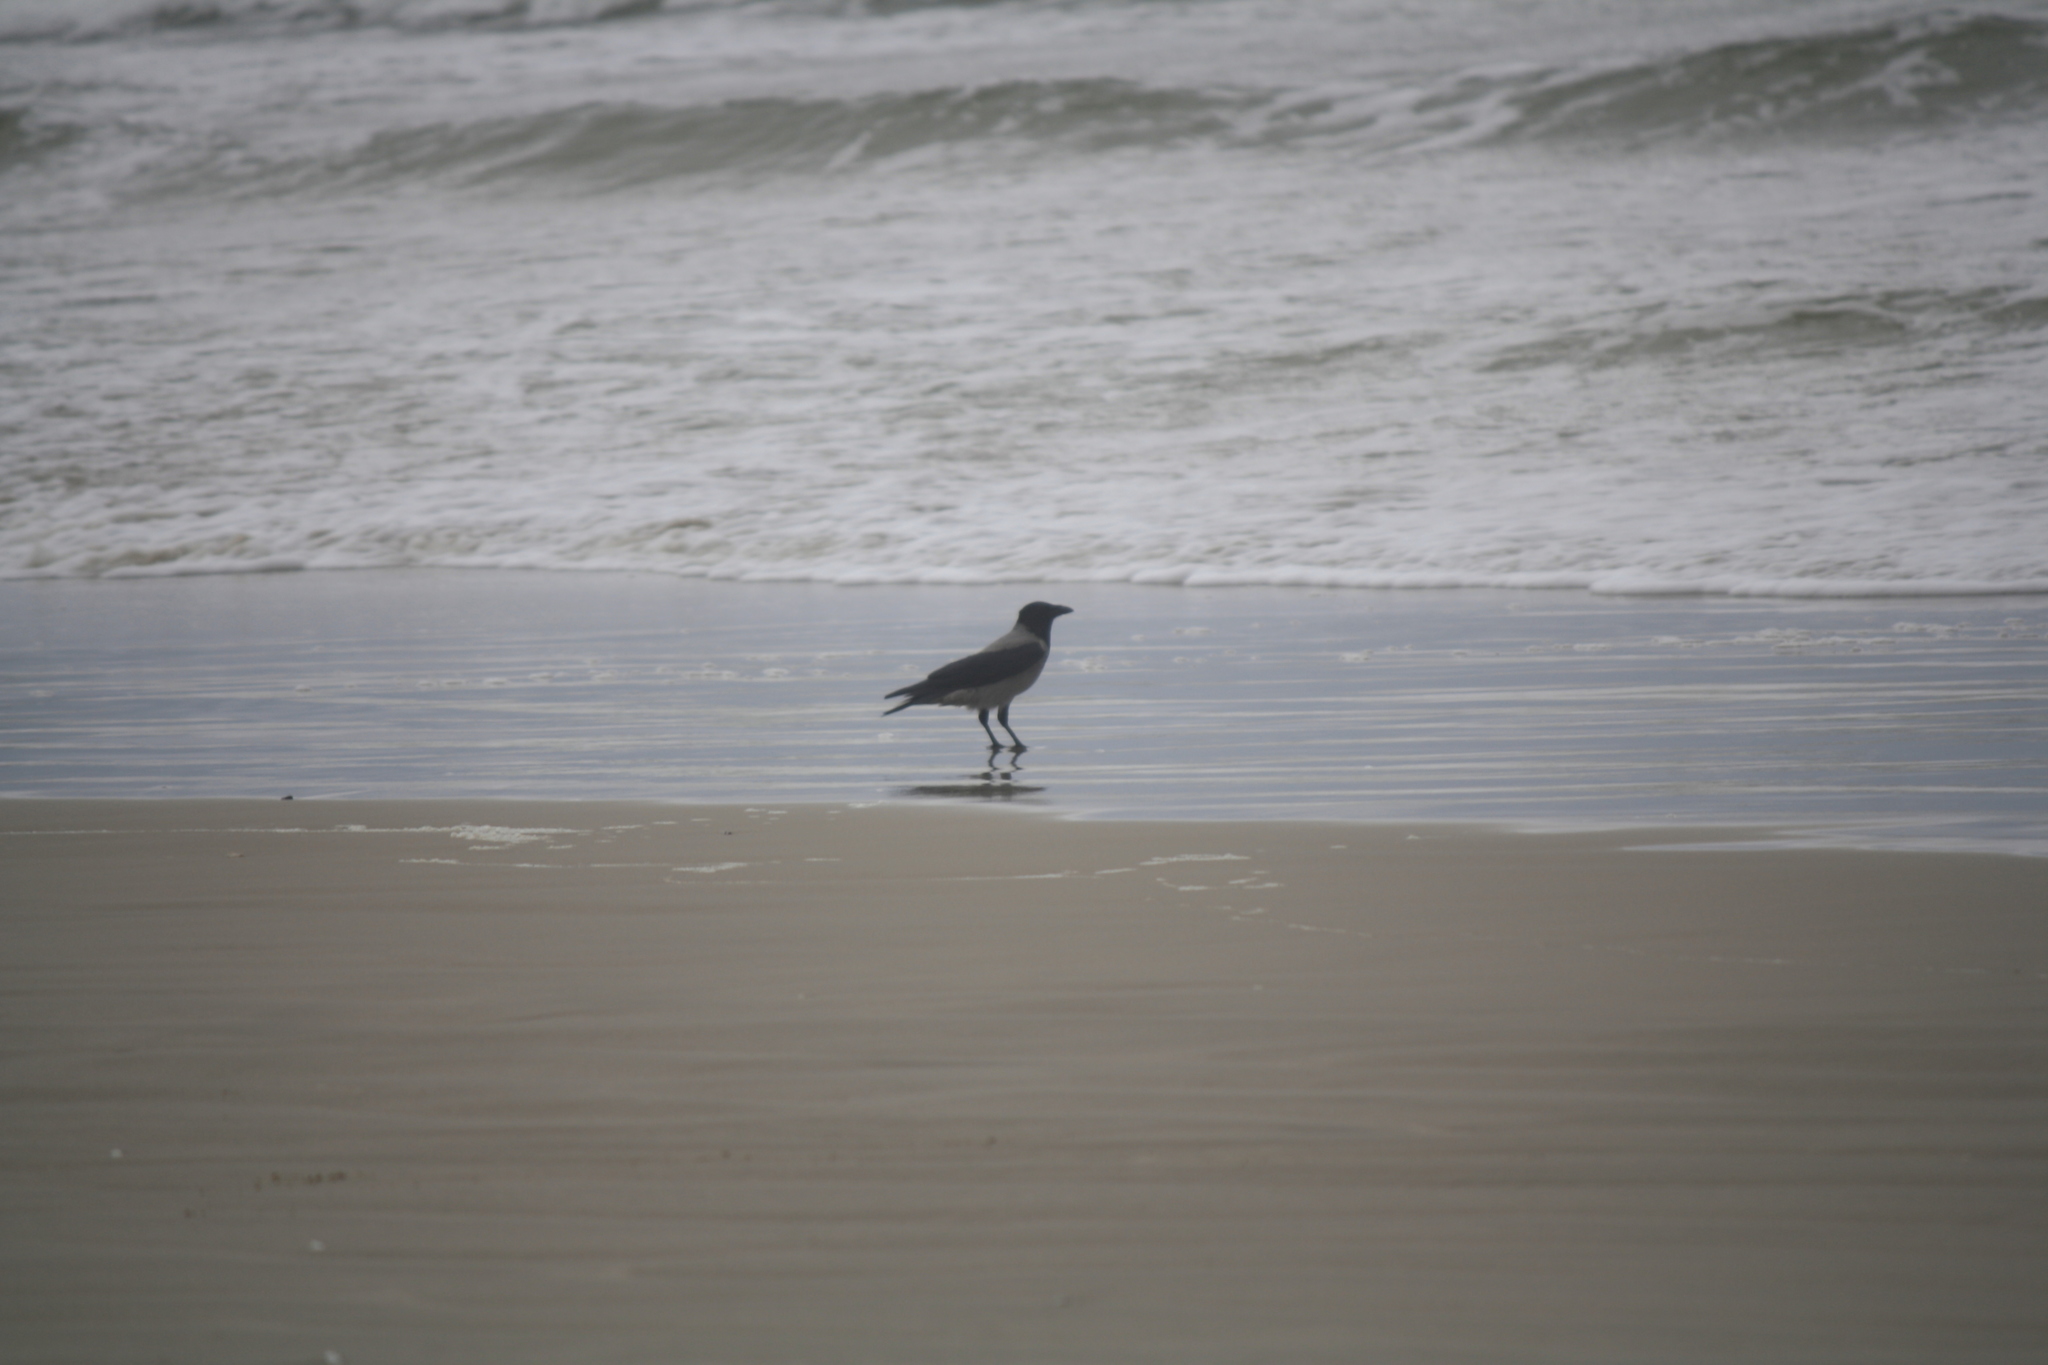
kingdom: Animalia
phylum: Chordata
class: Aves
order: Passeriformes
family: Corvidae
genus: Corvus
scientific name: Corvus cornix
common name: Hooded crow
